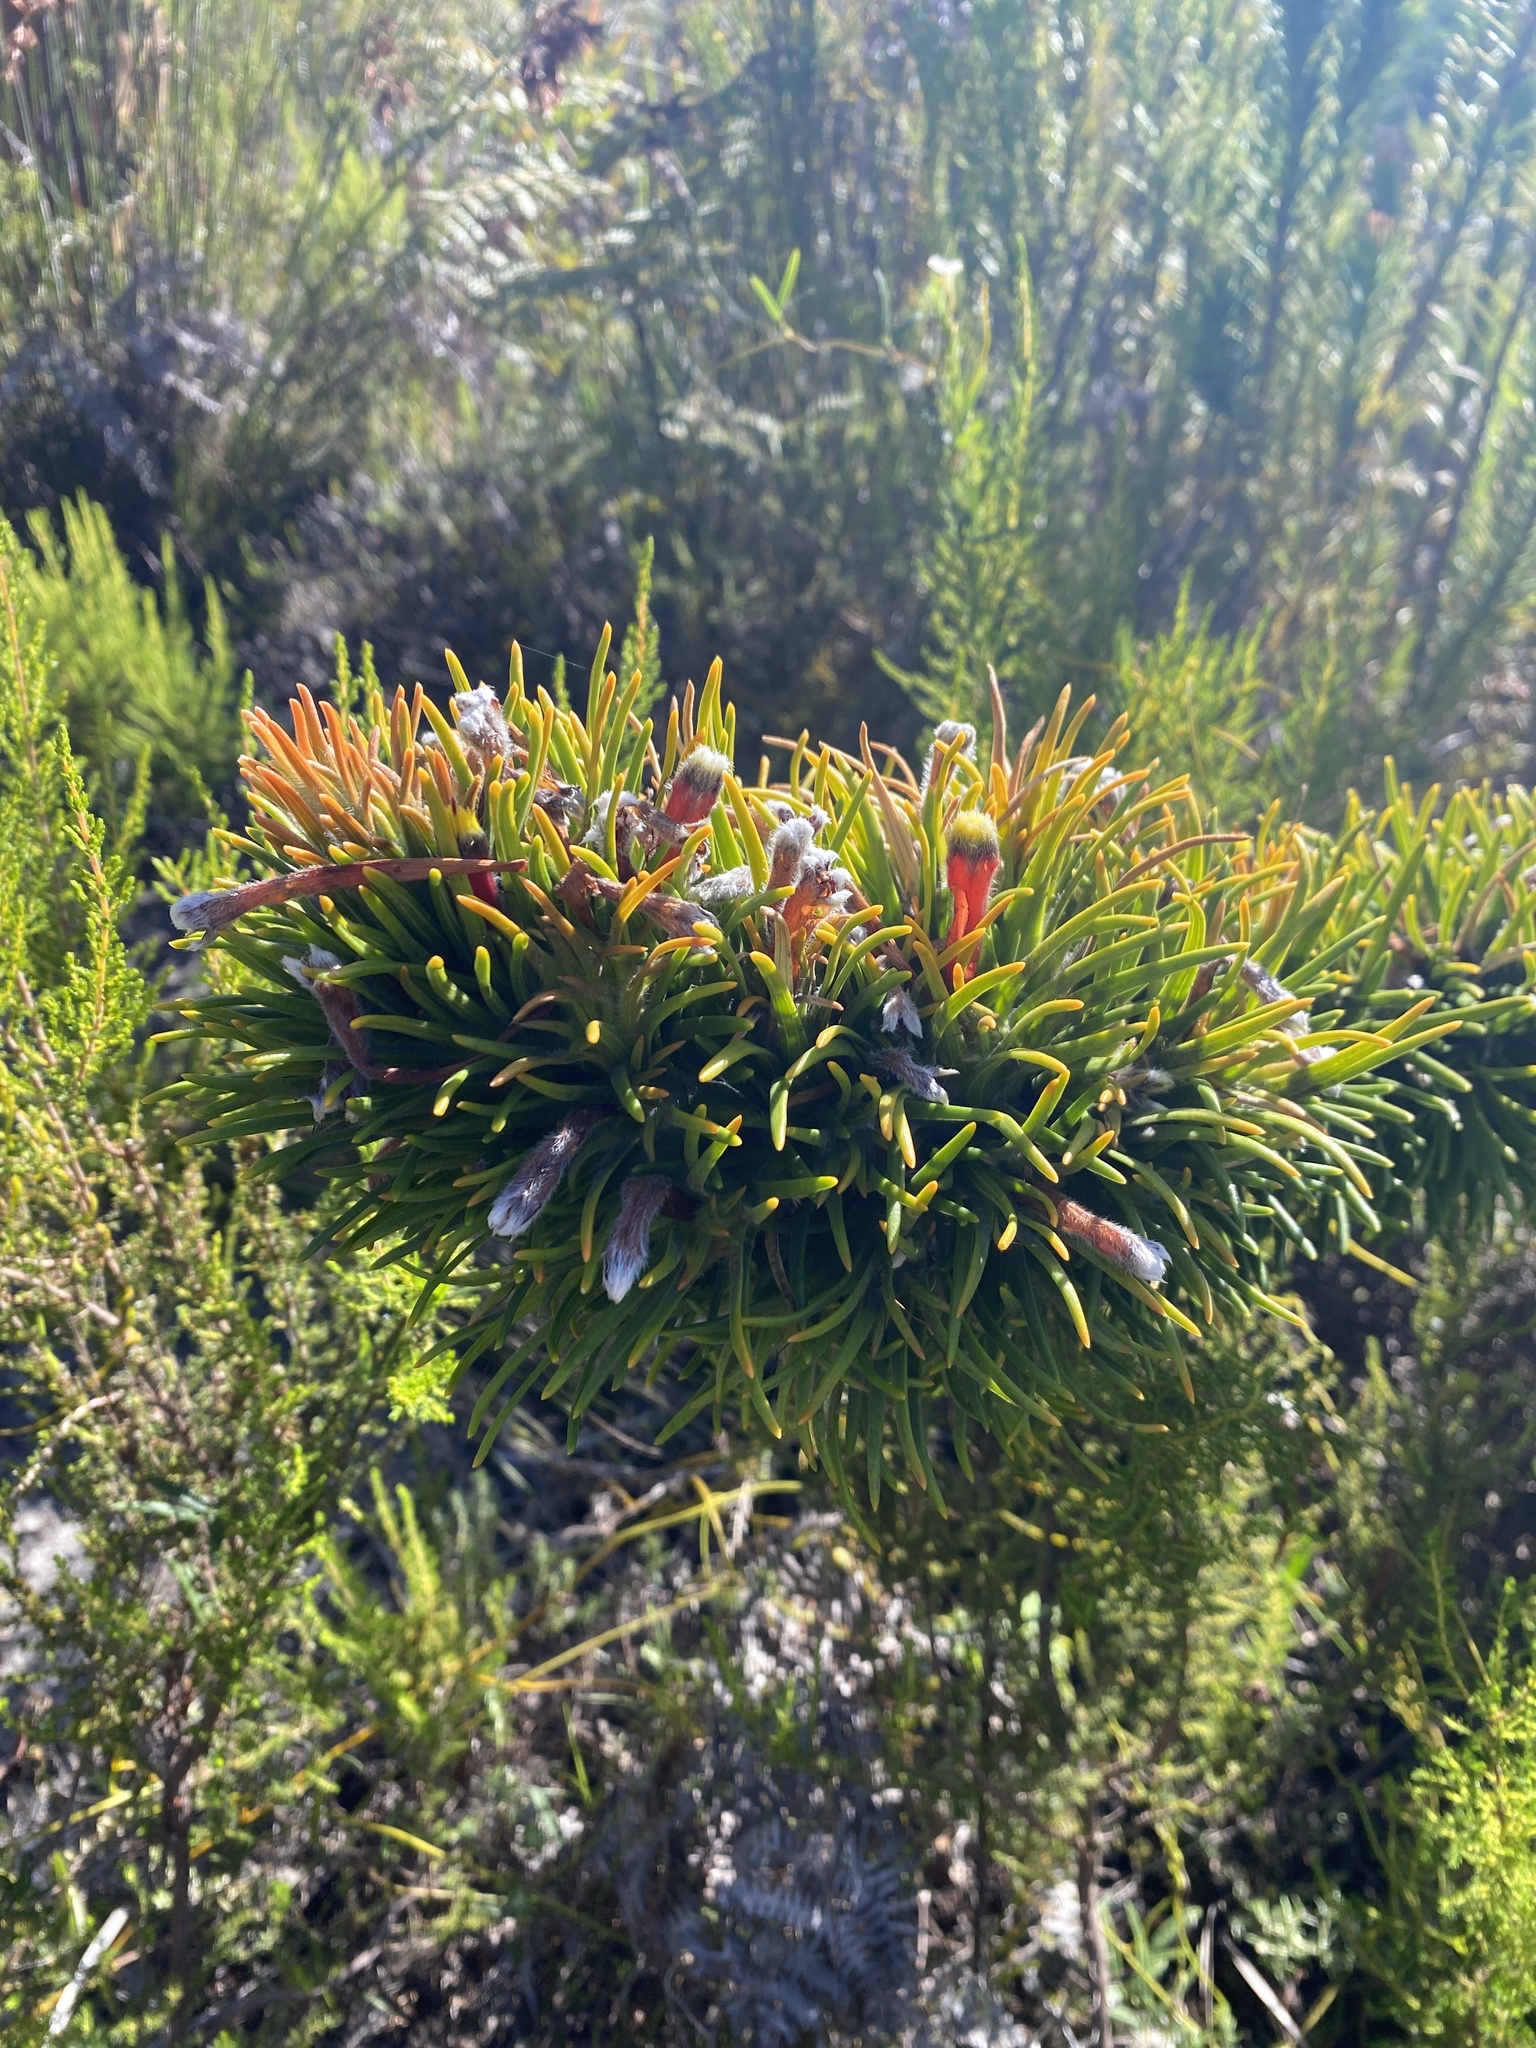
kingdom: Plantae
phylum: Tracheophyta
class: Magnoliopsida
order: Lamiales
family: Stilbaceae
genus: Retzia
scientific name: Retzia capensis
